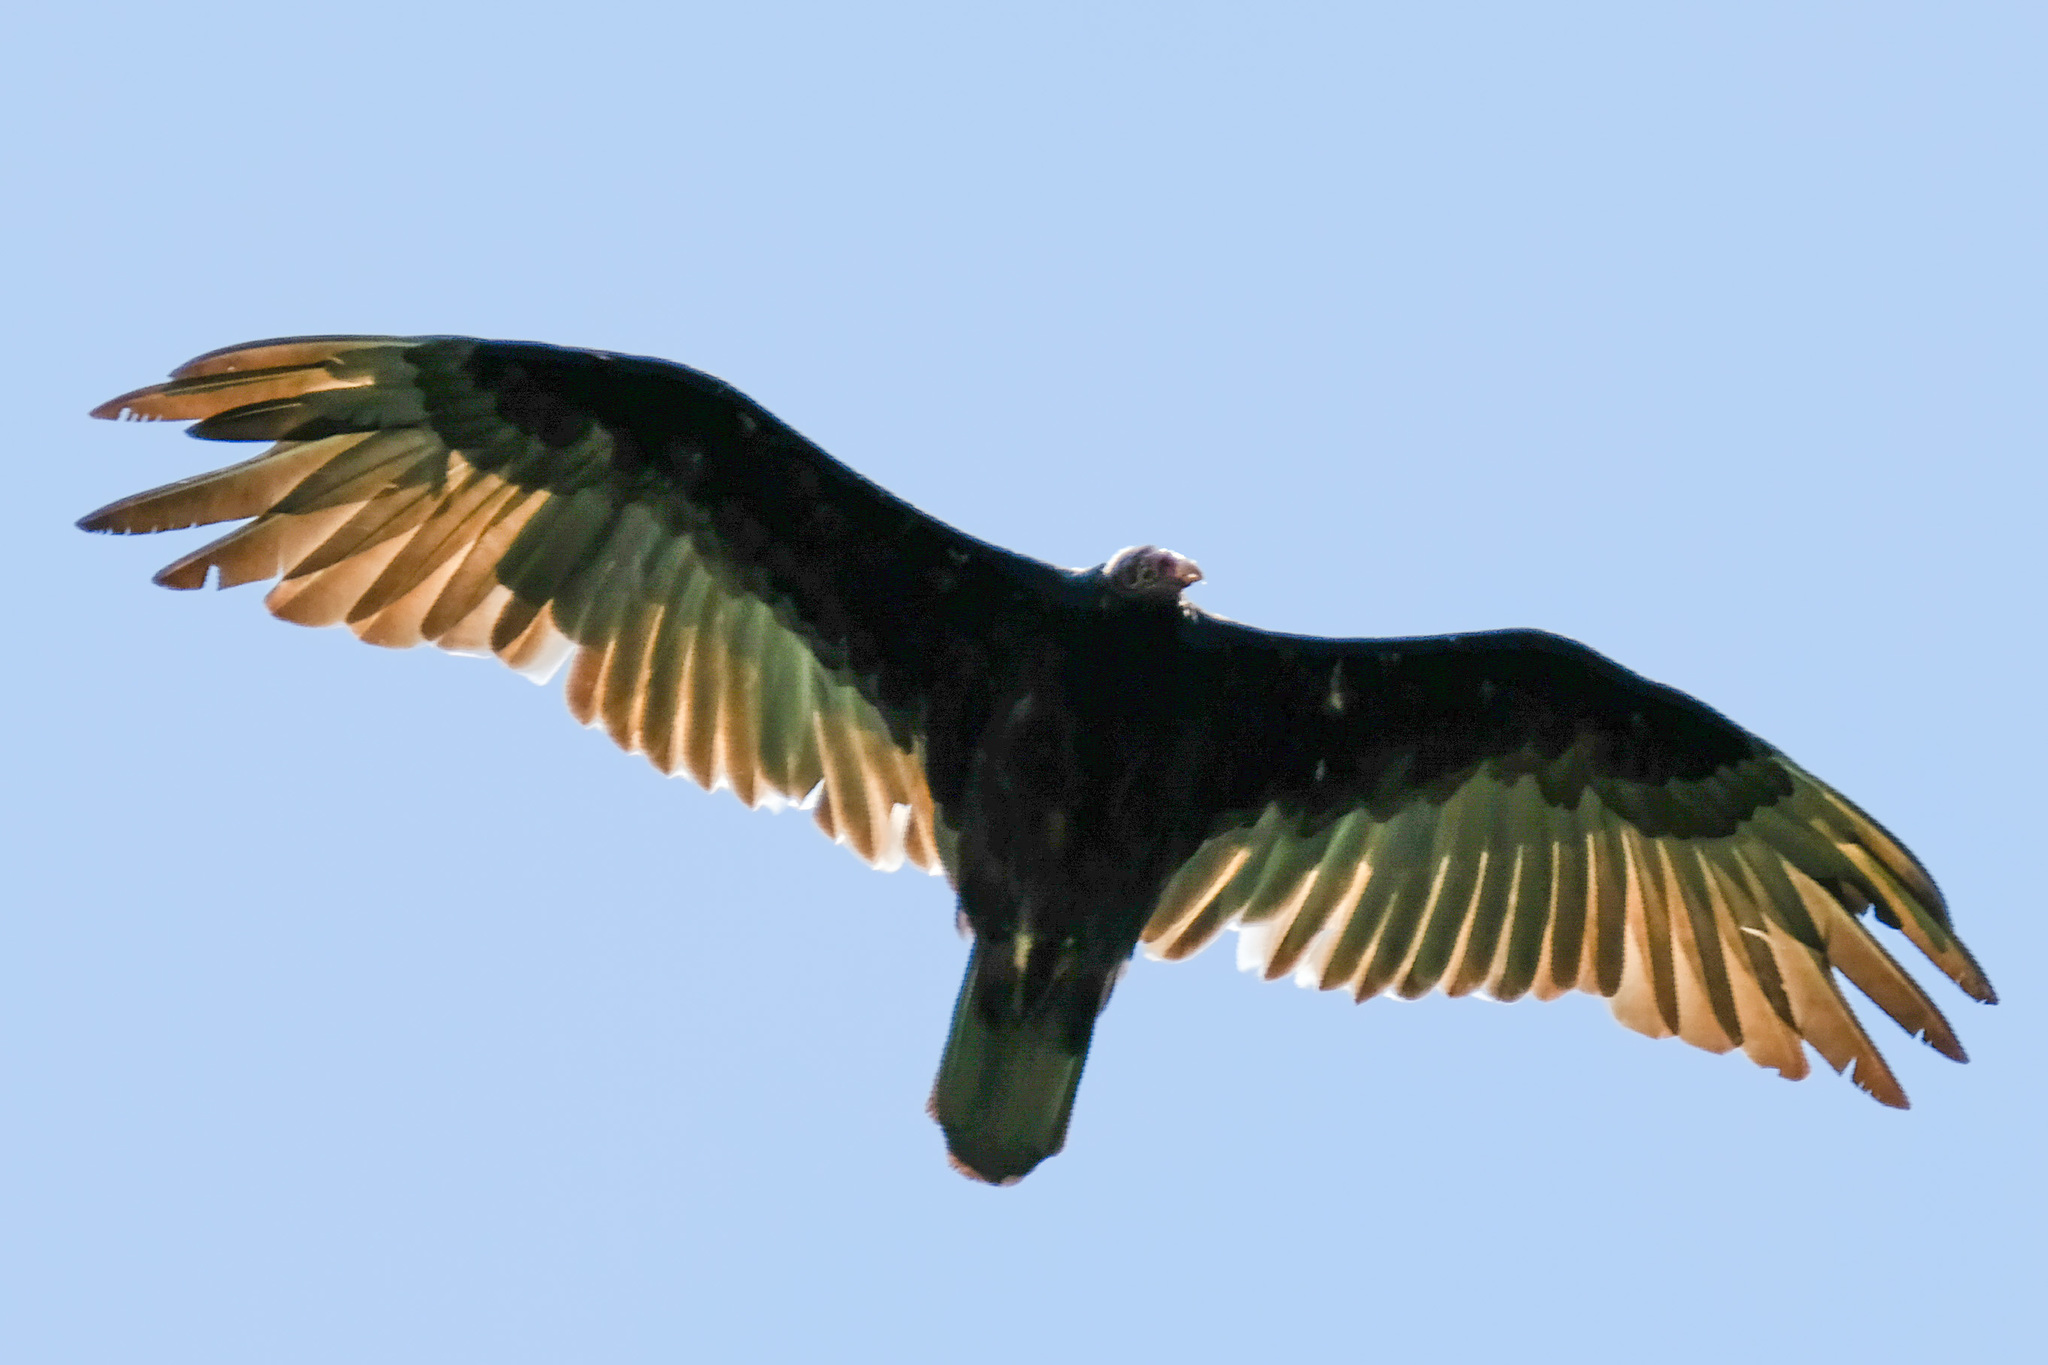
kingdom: Animalia
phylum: Chordata
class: Aves
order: Accipitriformes
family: Cathartidae
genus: Cathartes
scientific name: Cathartes aura
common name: Turkey vulture
